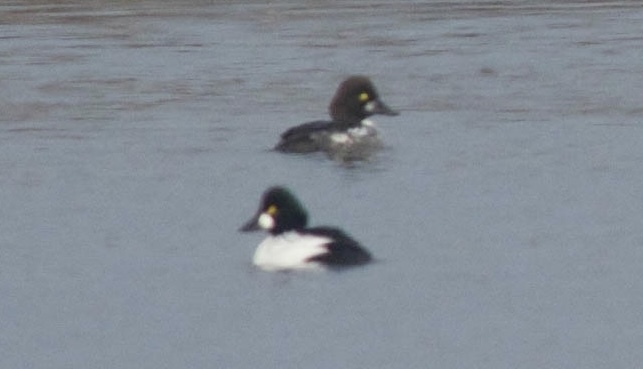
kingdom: Animalia
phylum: Chordata
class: Aves
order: Anseriformes
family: Anatidae
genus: Bucephala
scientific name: Bucephala clangula
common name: Common goldeneye
